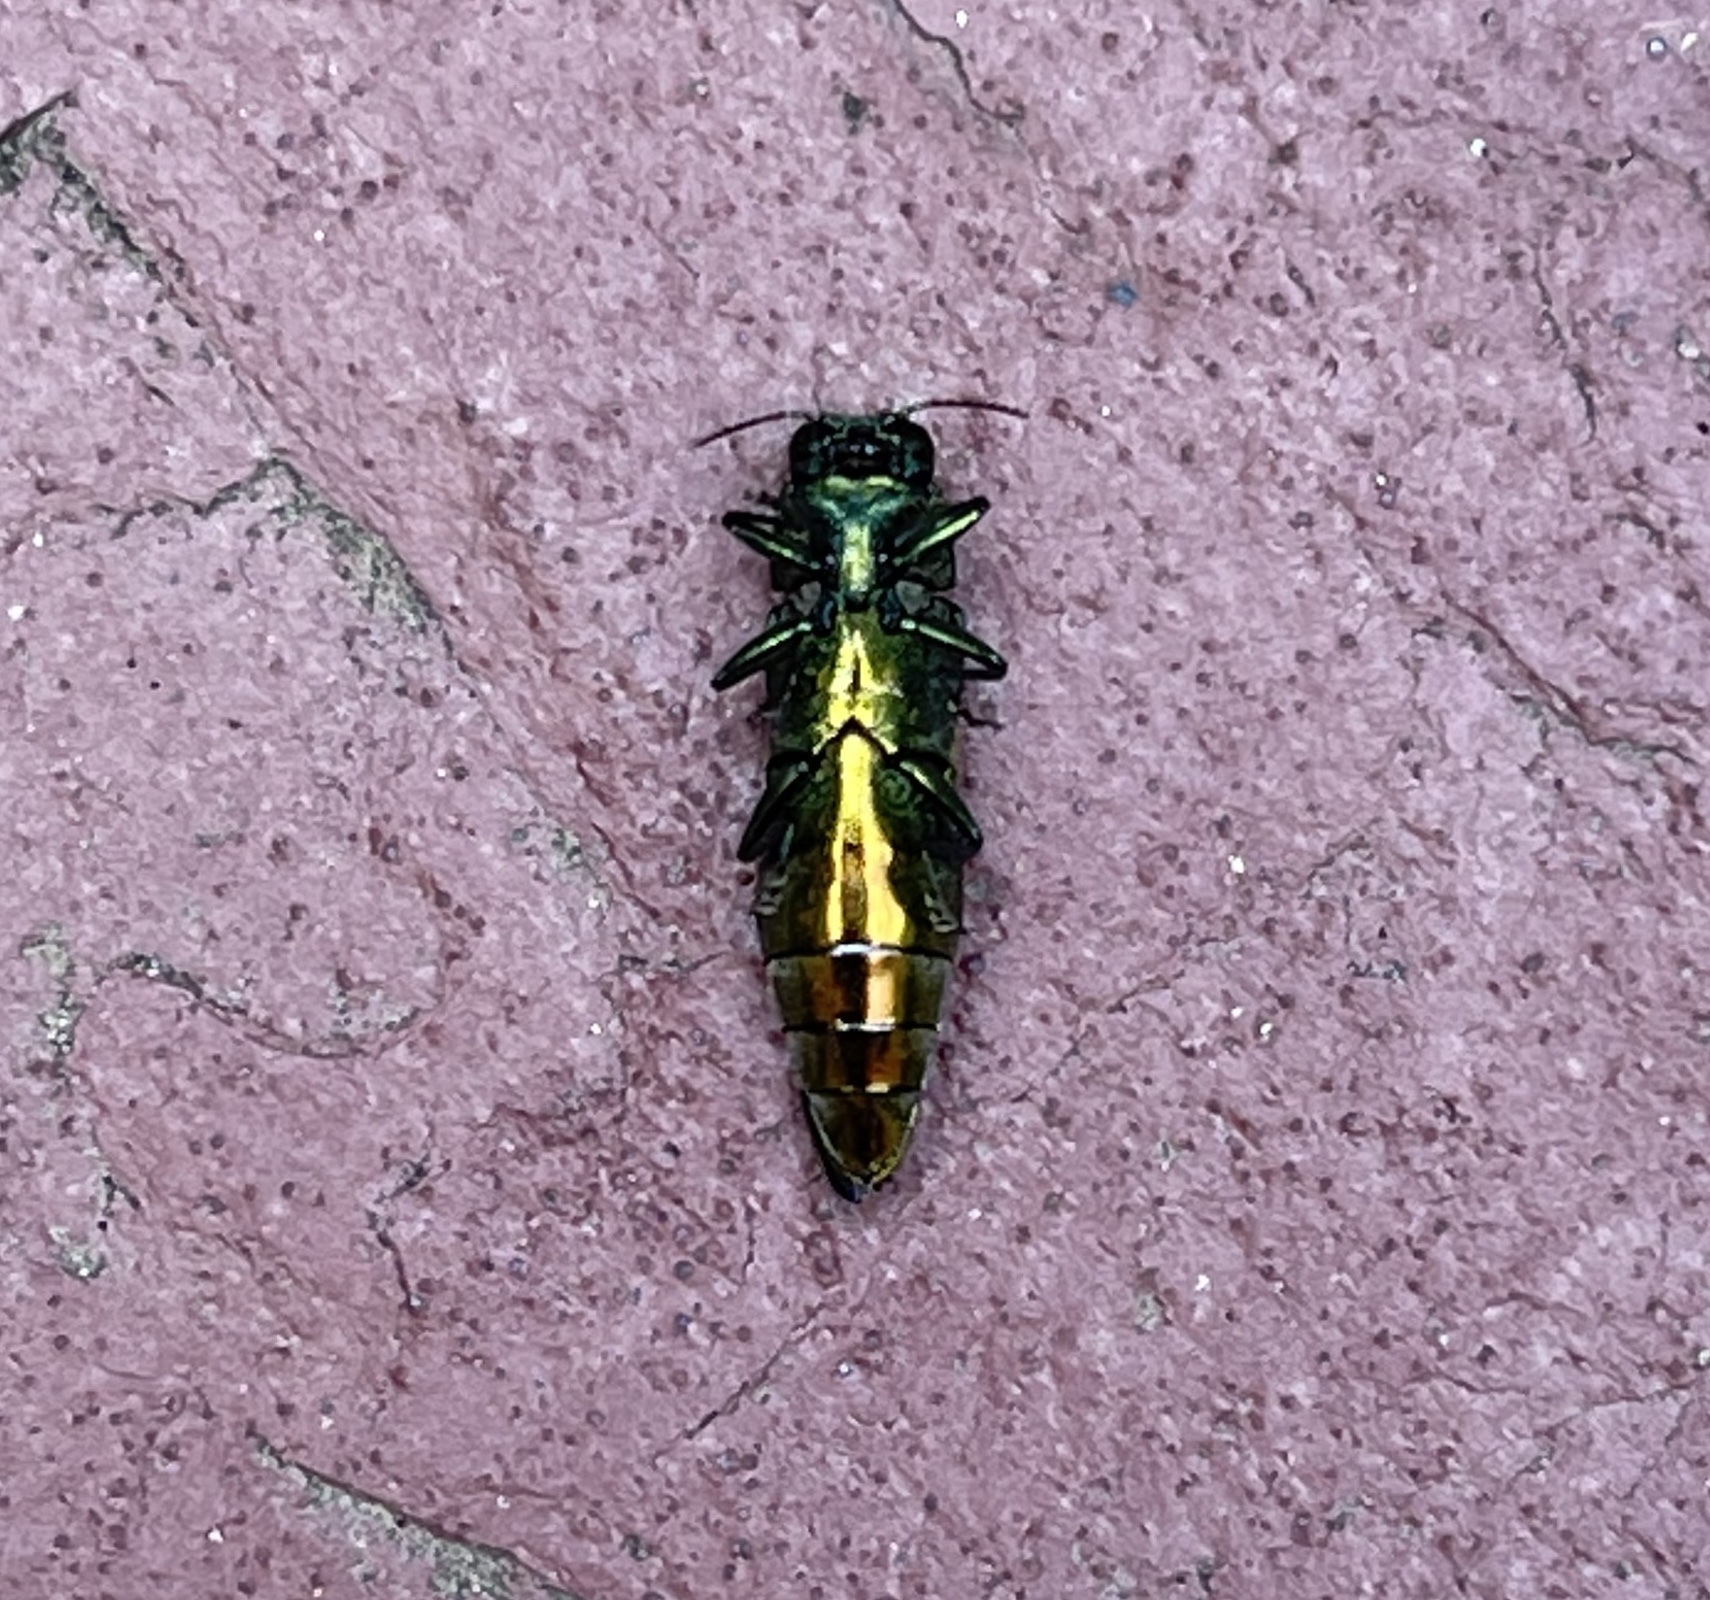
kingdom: Animalia
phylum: Arthropoda
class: Insecta
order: Coleoptera
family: Buprestidae
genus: Agrilus
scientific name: Agrilus planipennis
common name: Emerald ash borer
